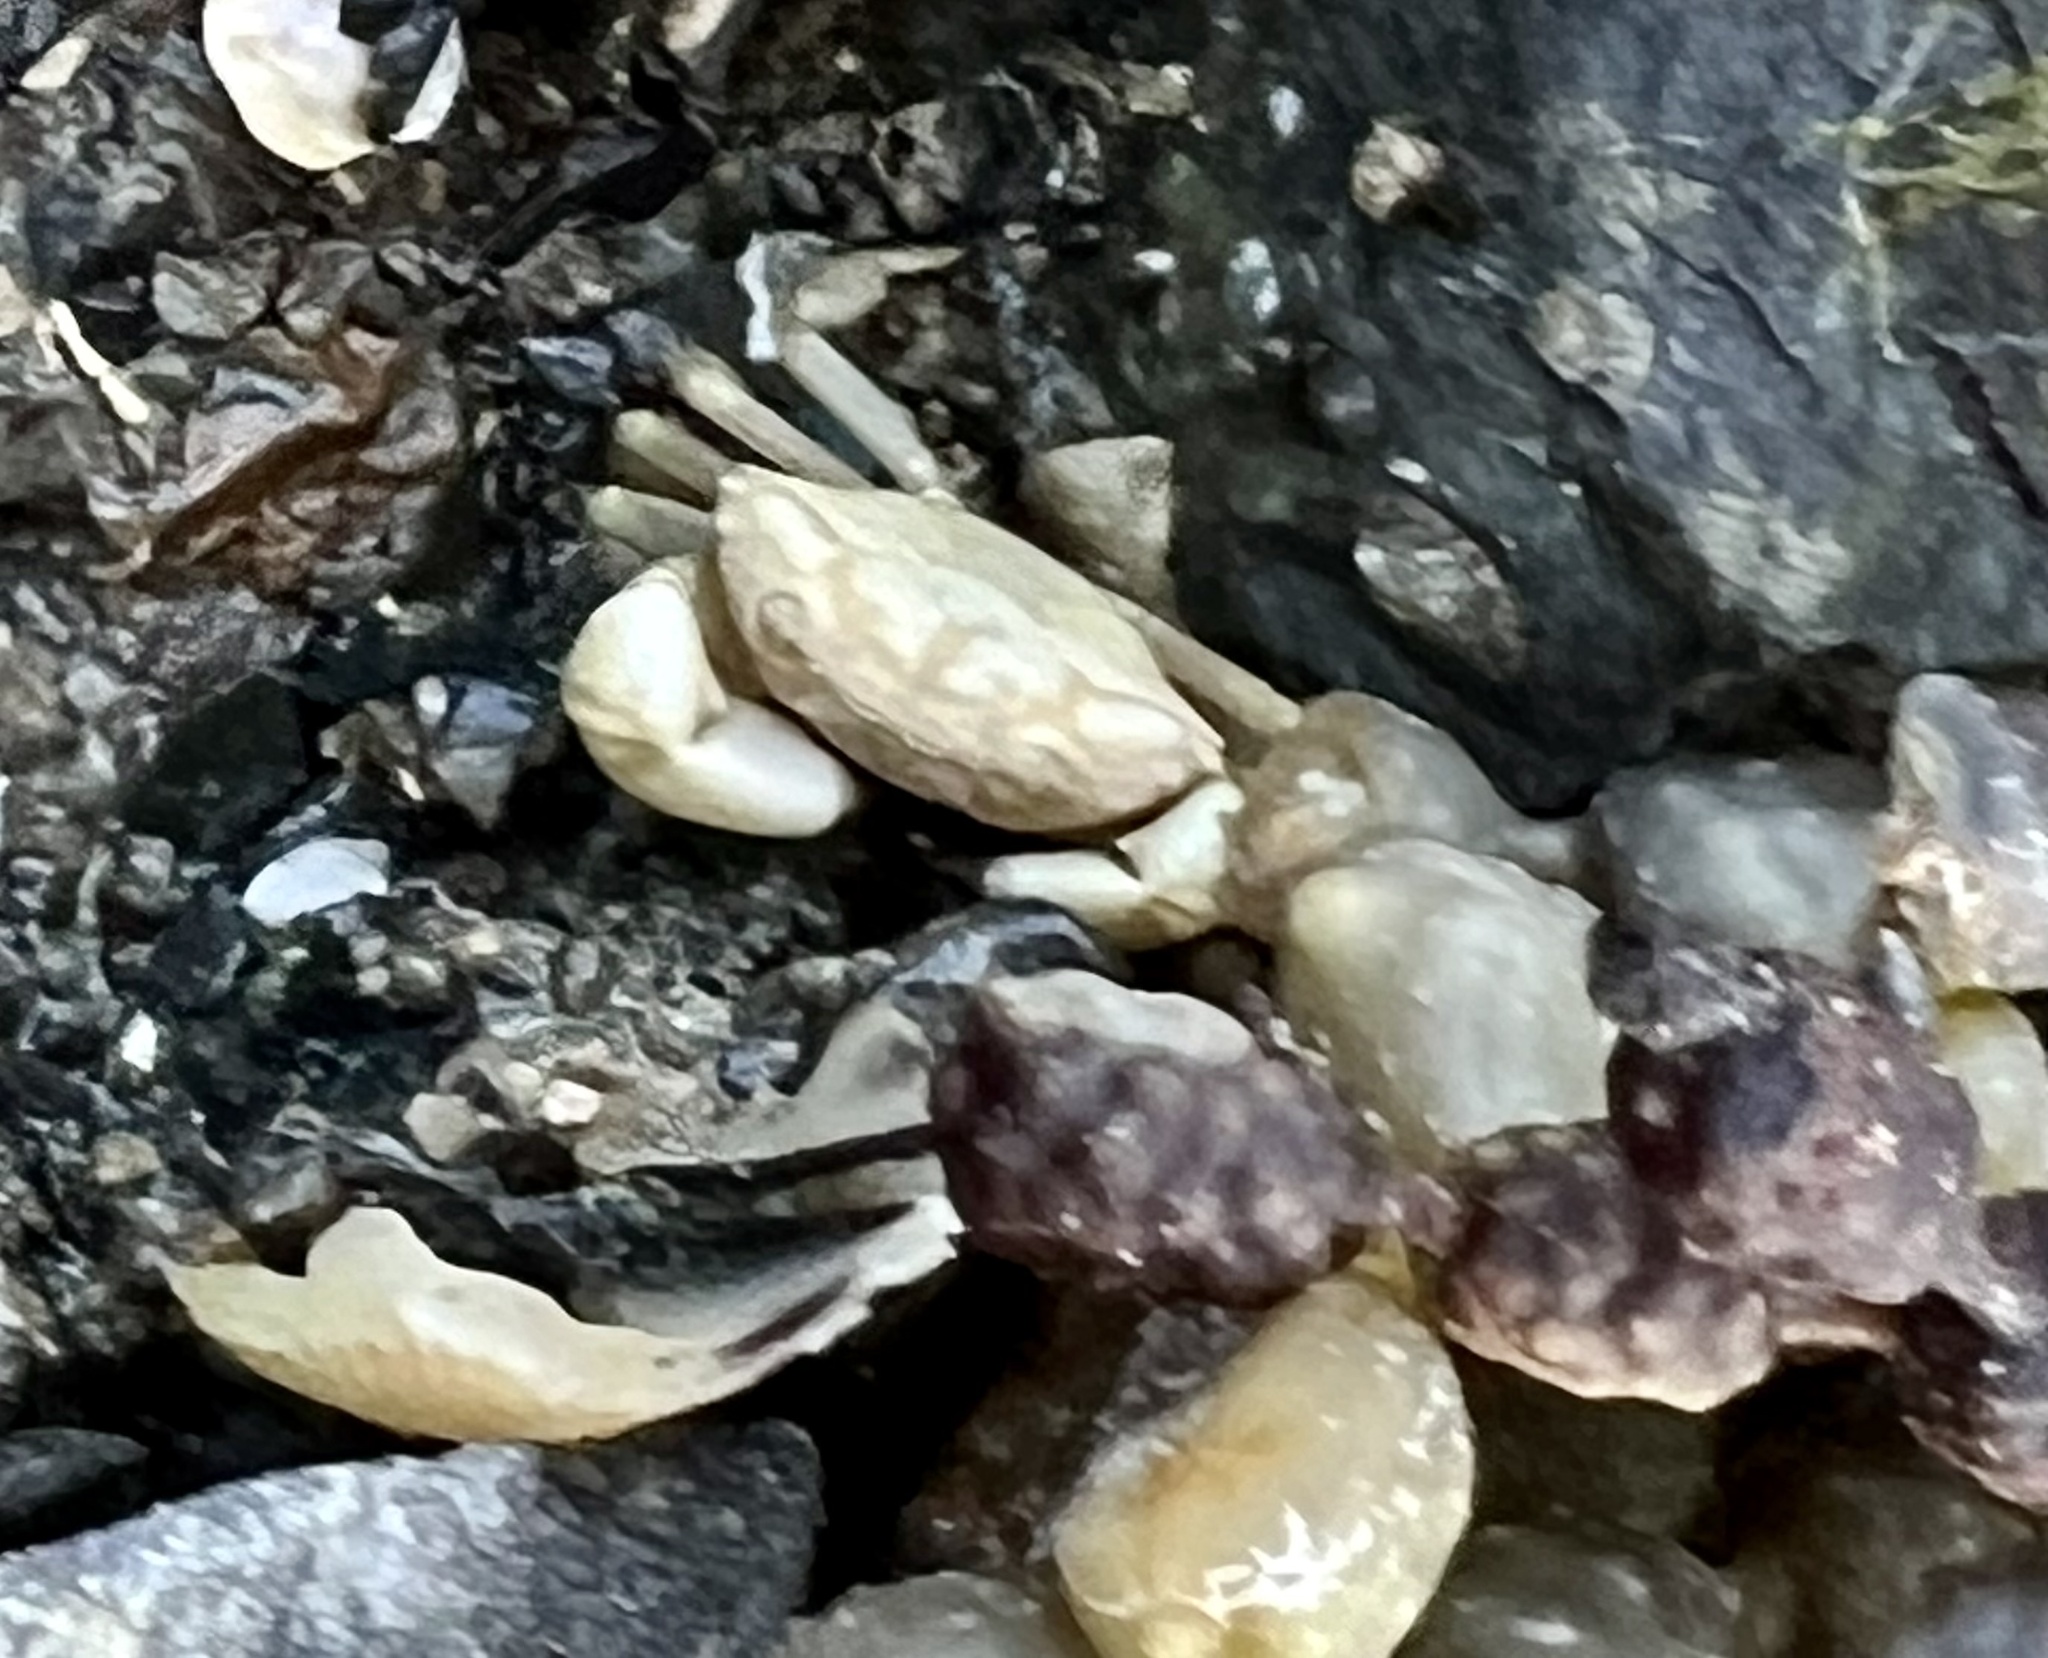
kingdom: Animalia
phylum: Arthropoda
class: Malacostraca
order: Decapoda
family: Oziidae
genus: Ozius
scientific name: Ozius deplanatus
